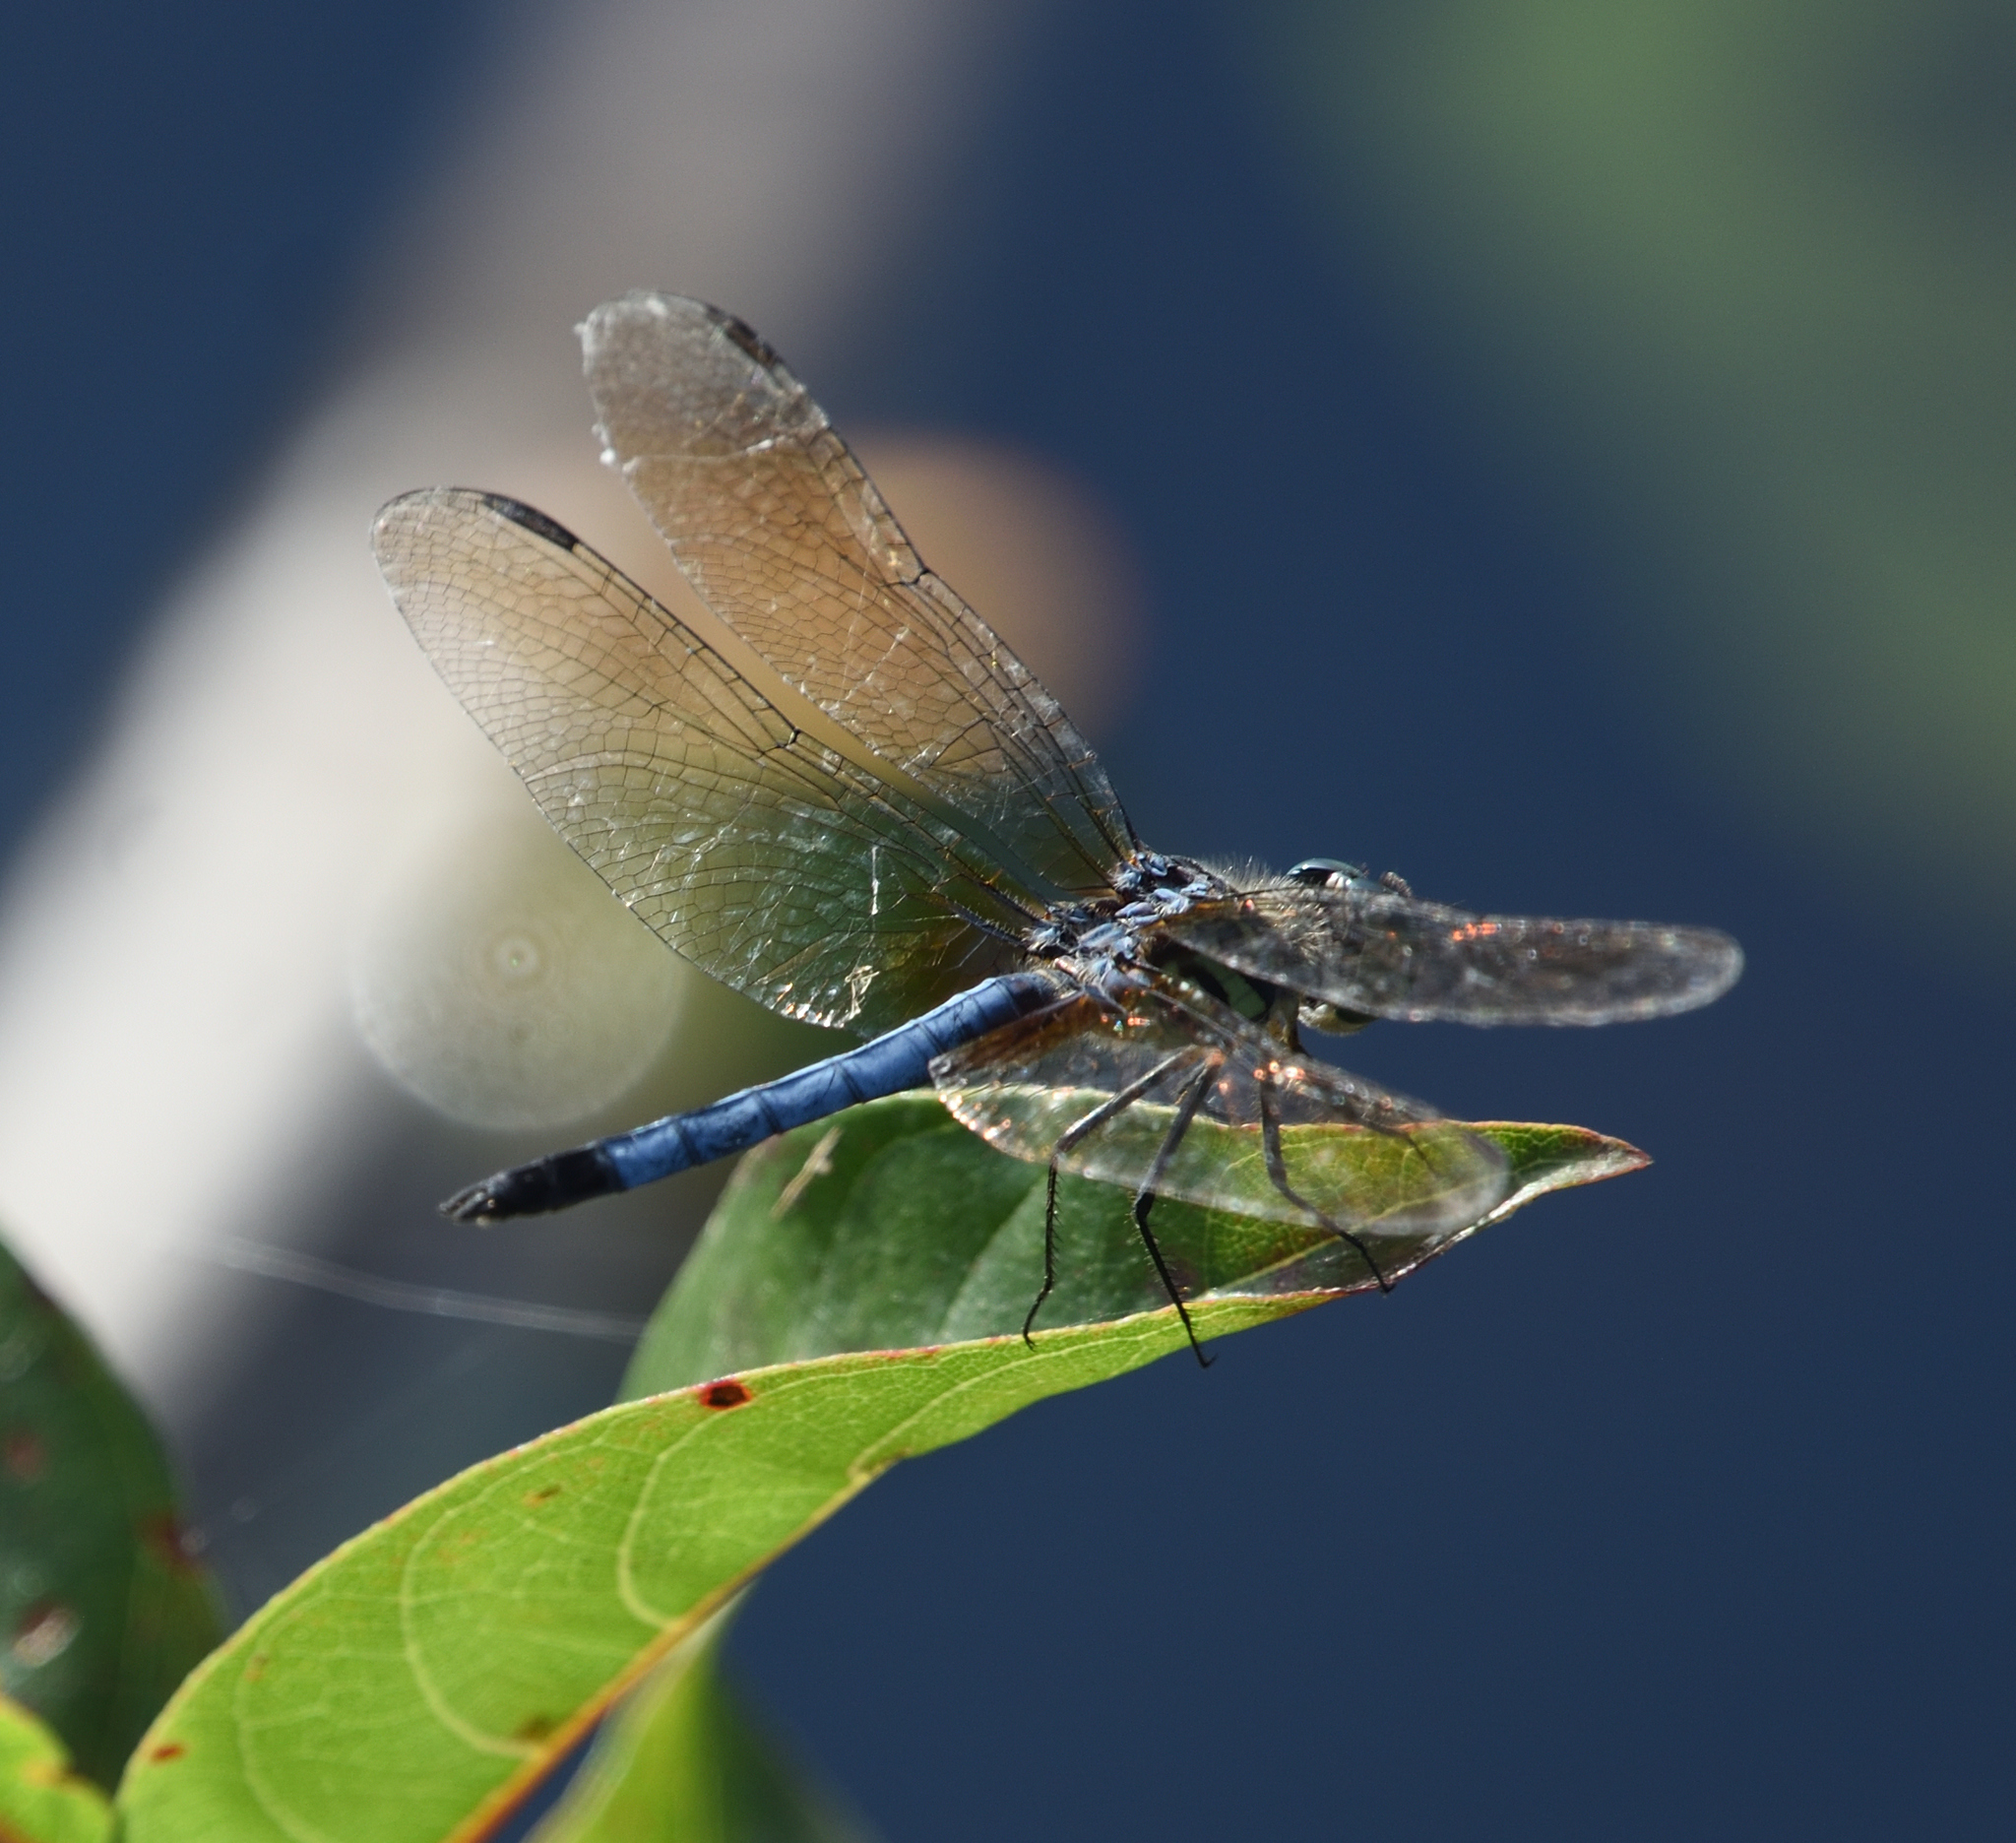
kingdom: Animalia
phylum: Arthropoda
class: Insecta
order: Odonata
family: Libellulidae
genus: Pachydiplax
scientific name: Pachydiplax longipennis
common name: Blue dasher
